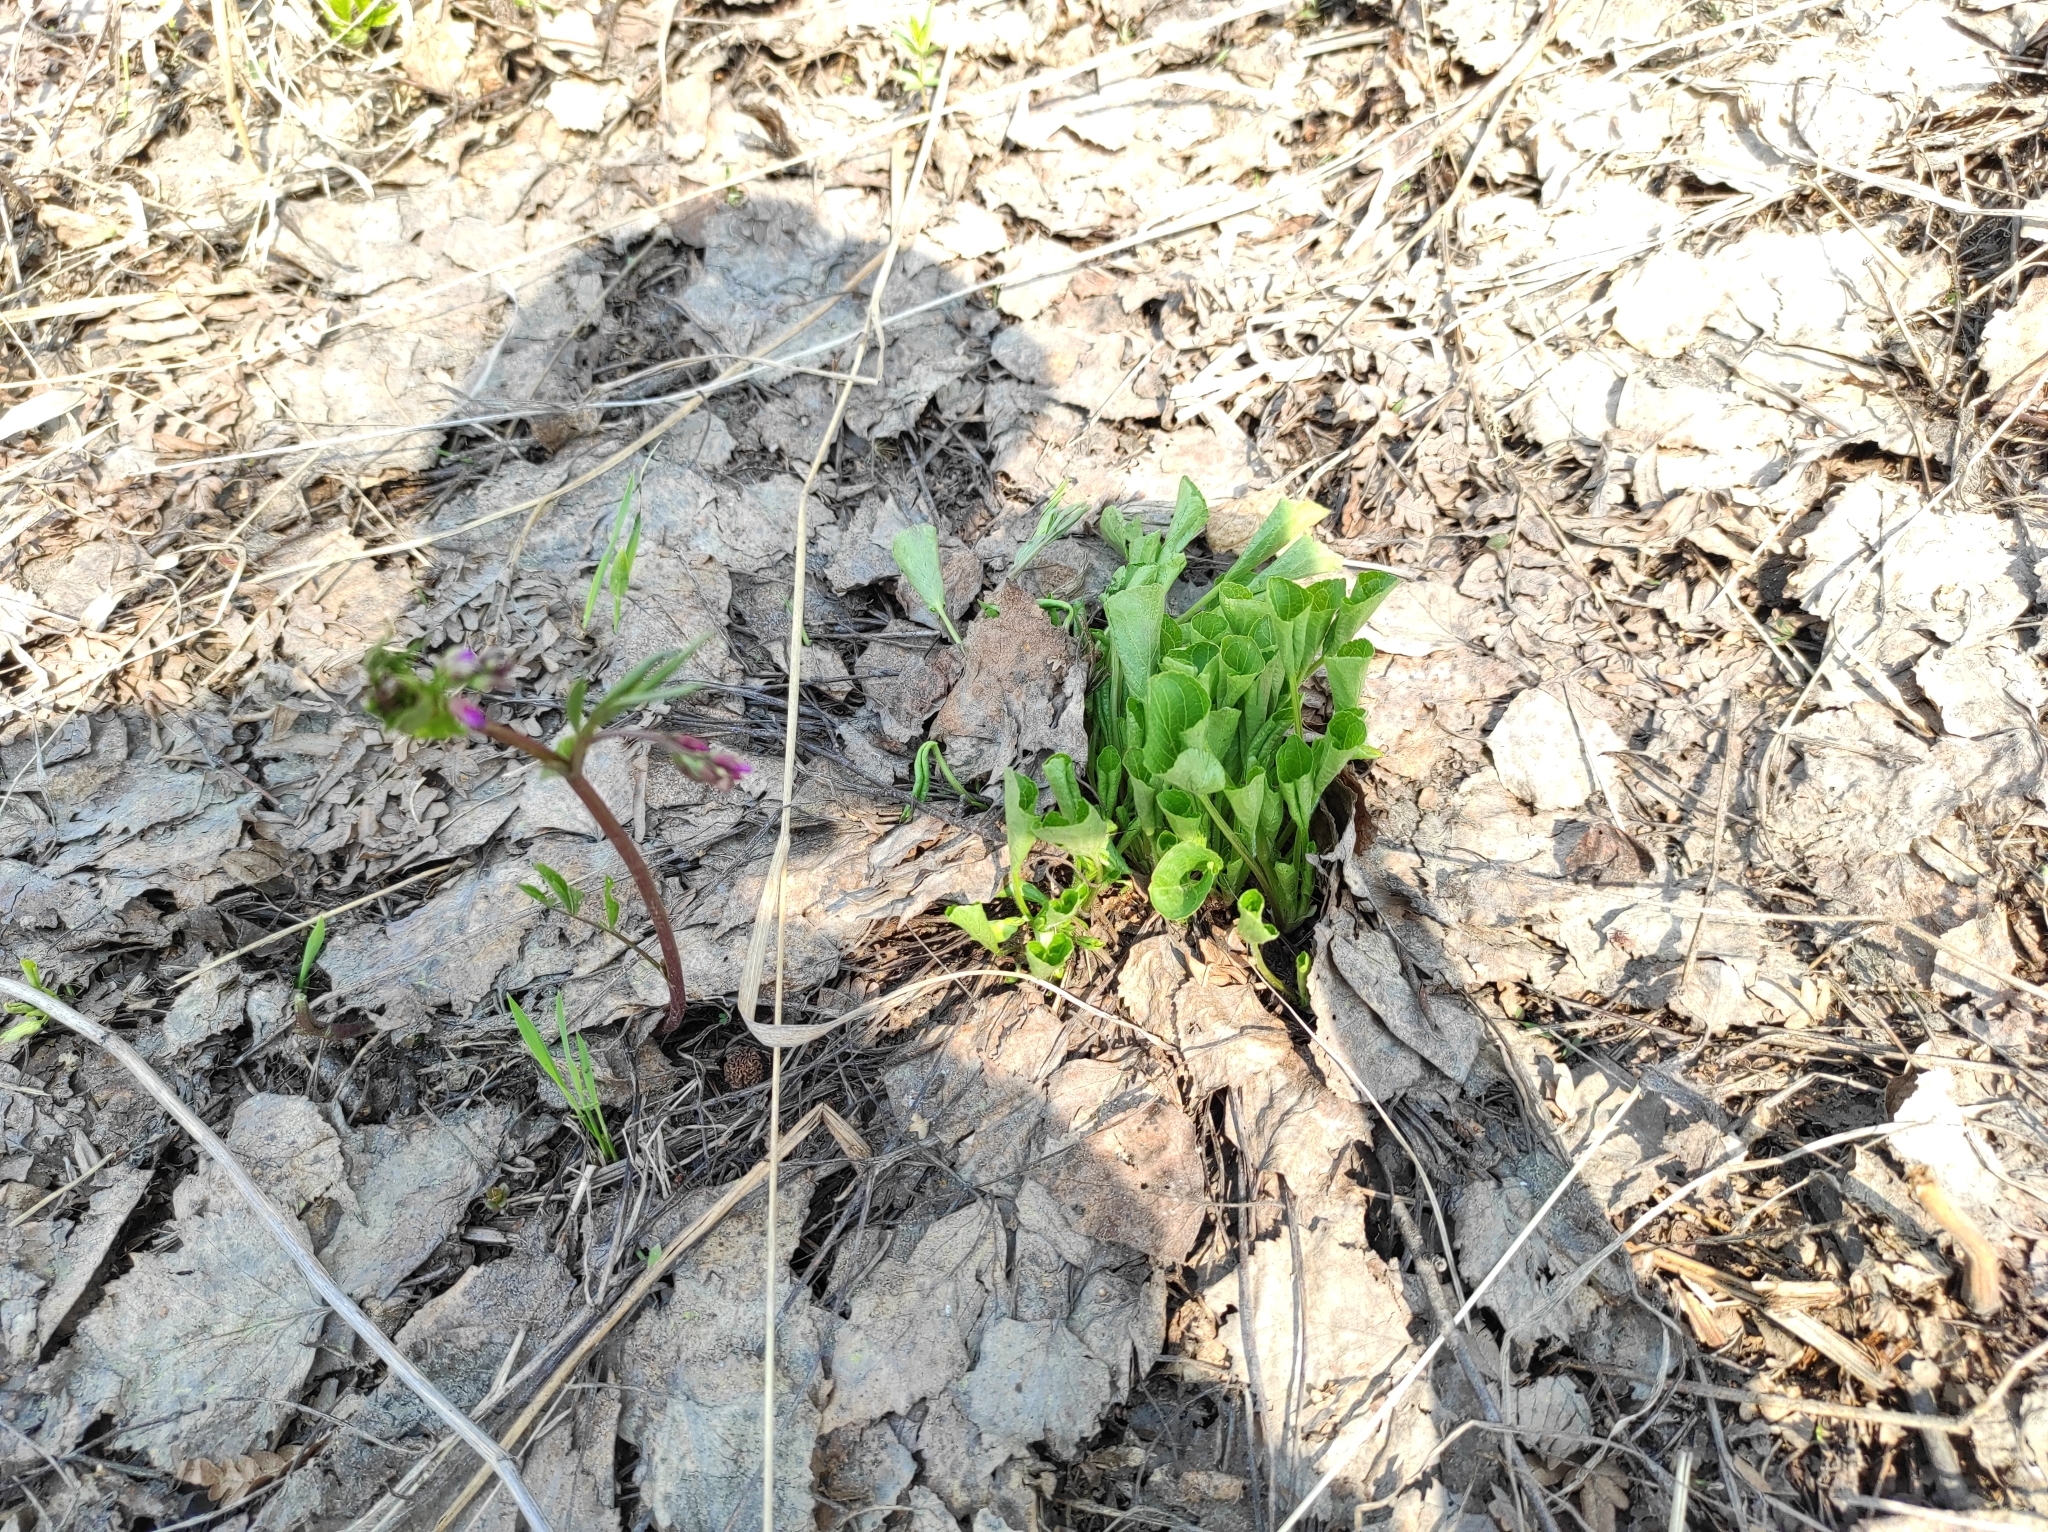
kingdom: Plantae
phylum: Tracheophyta
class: Magnoliopsida
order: Malpighiales
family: Violaceae
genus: Viola
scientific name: Viola mirabilis
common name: Wonder violet
